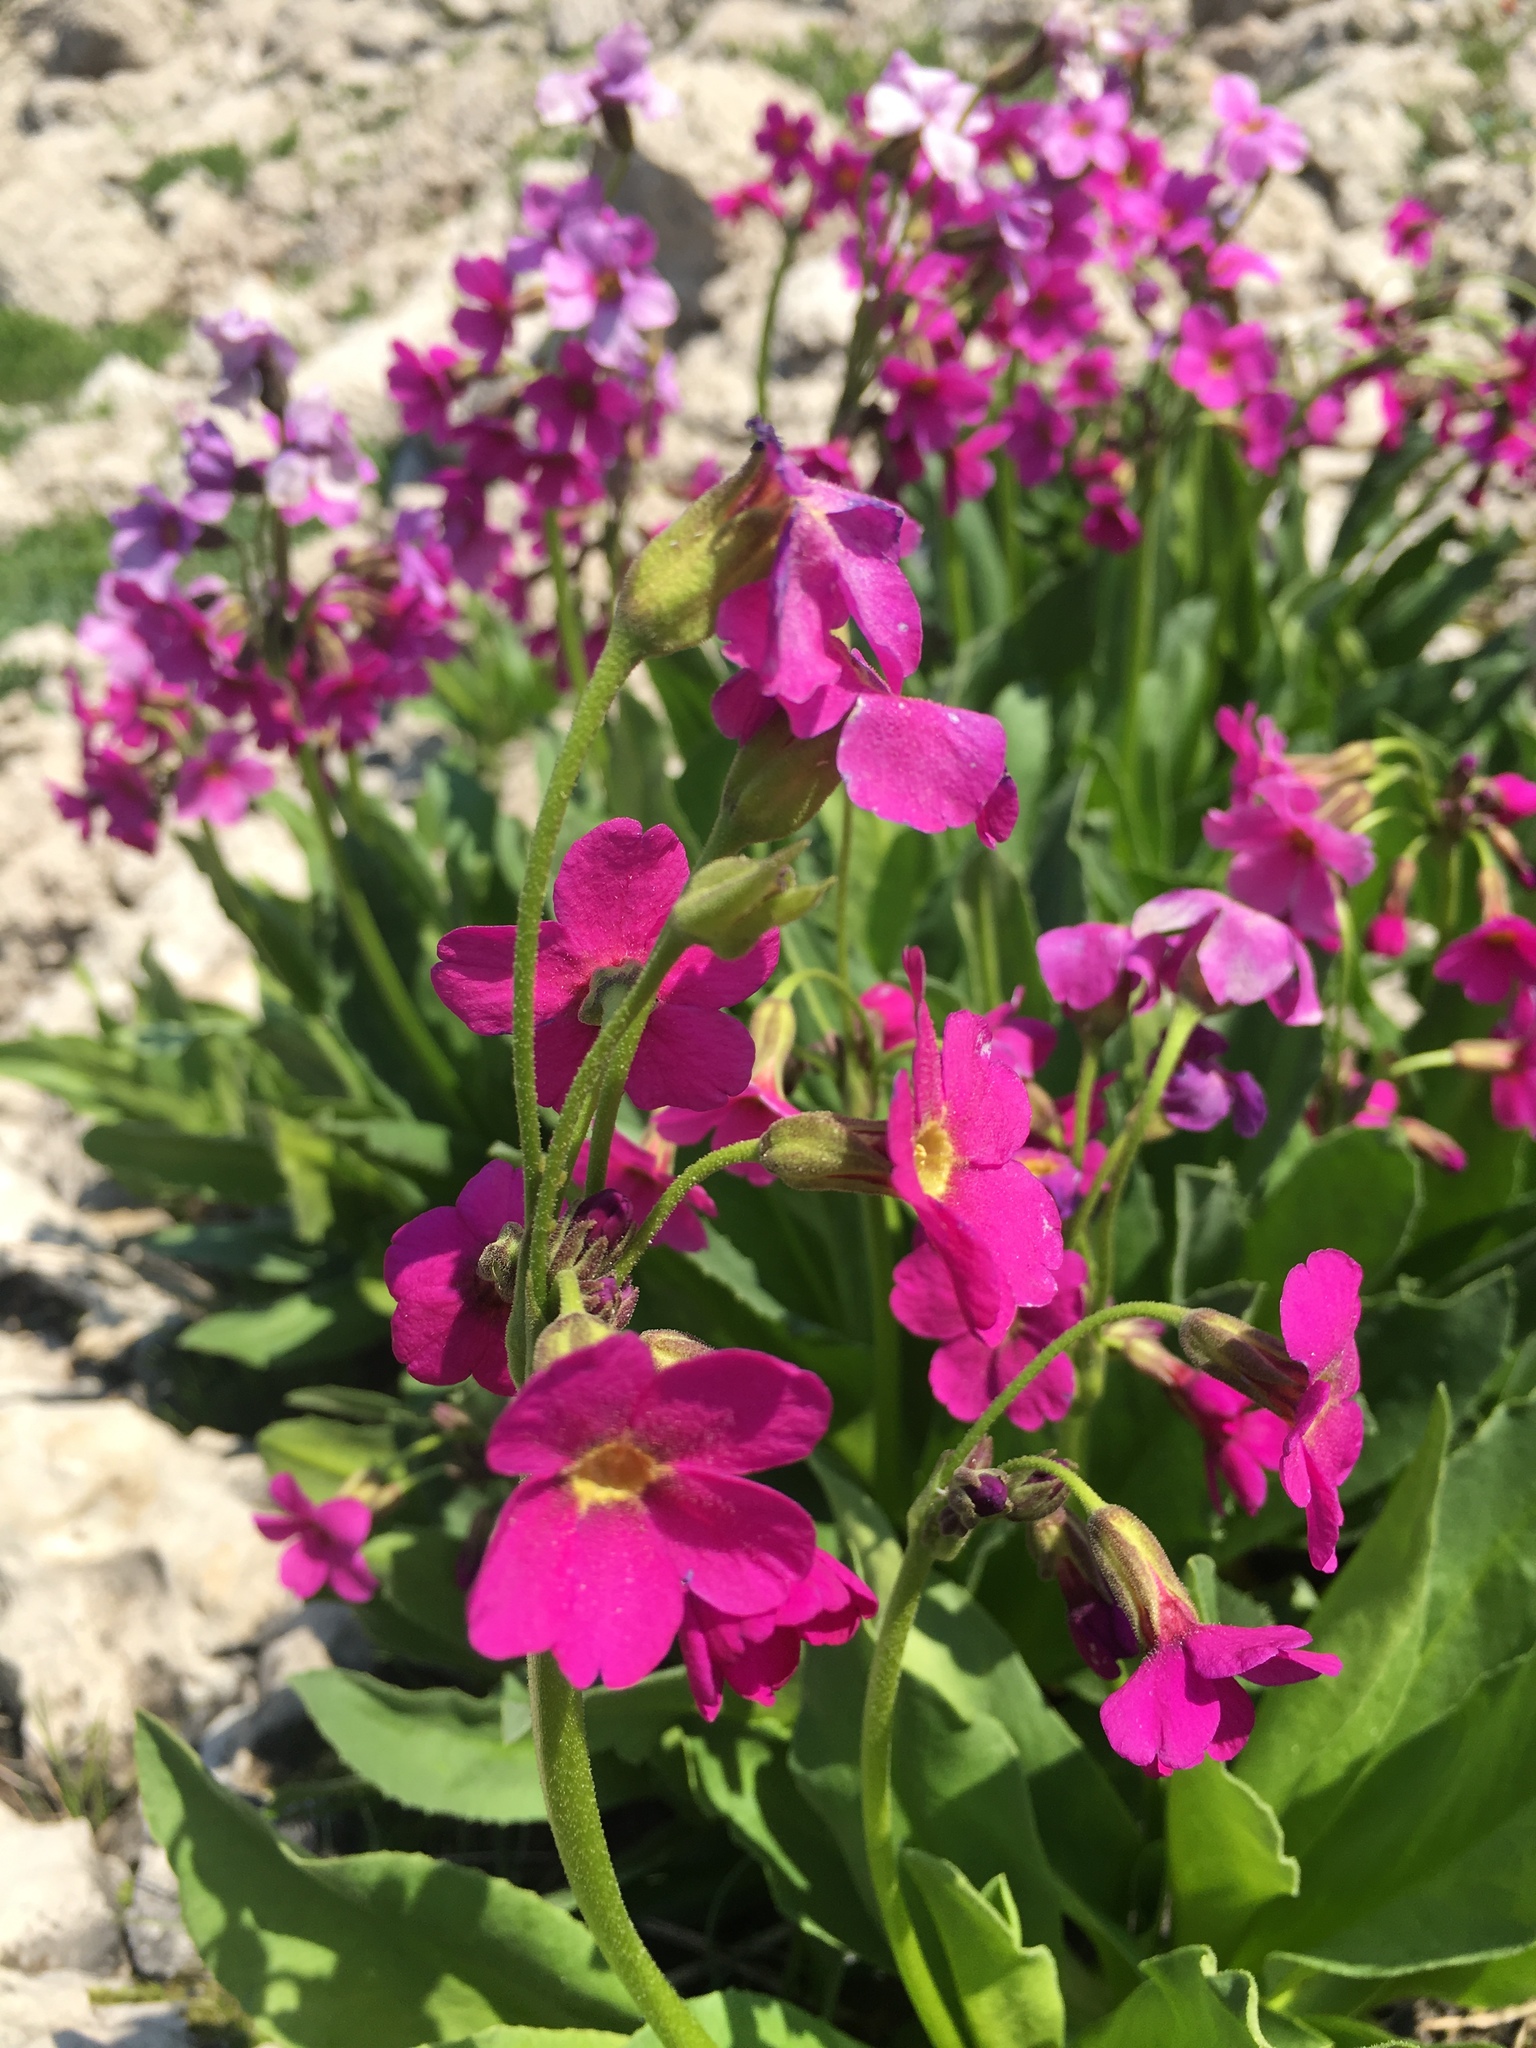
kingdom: Plantae
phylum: Tracheophyta
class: Magnoliopsida
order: Ericales
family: Primulaceae
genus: Primula
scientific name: Primula parryi
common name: Parry's primrose
